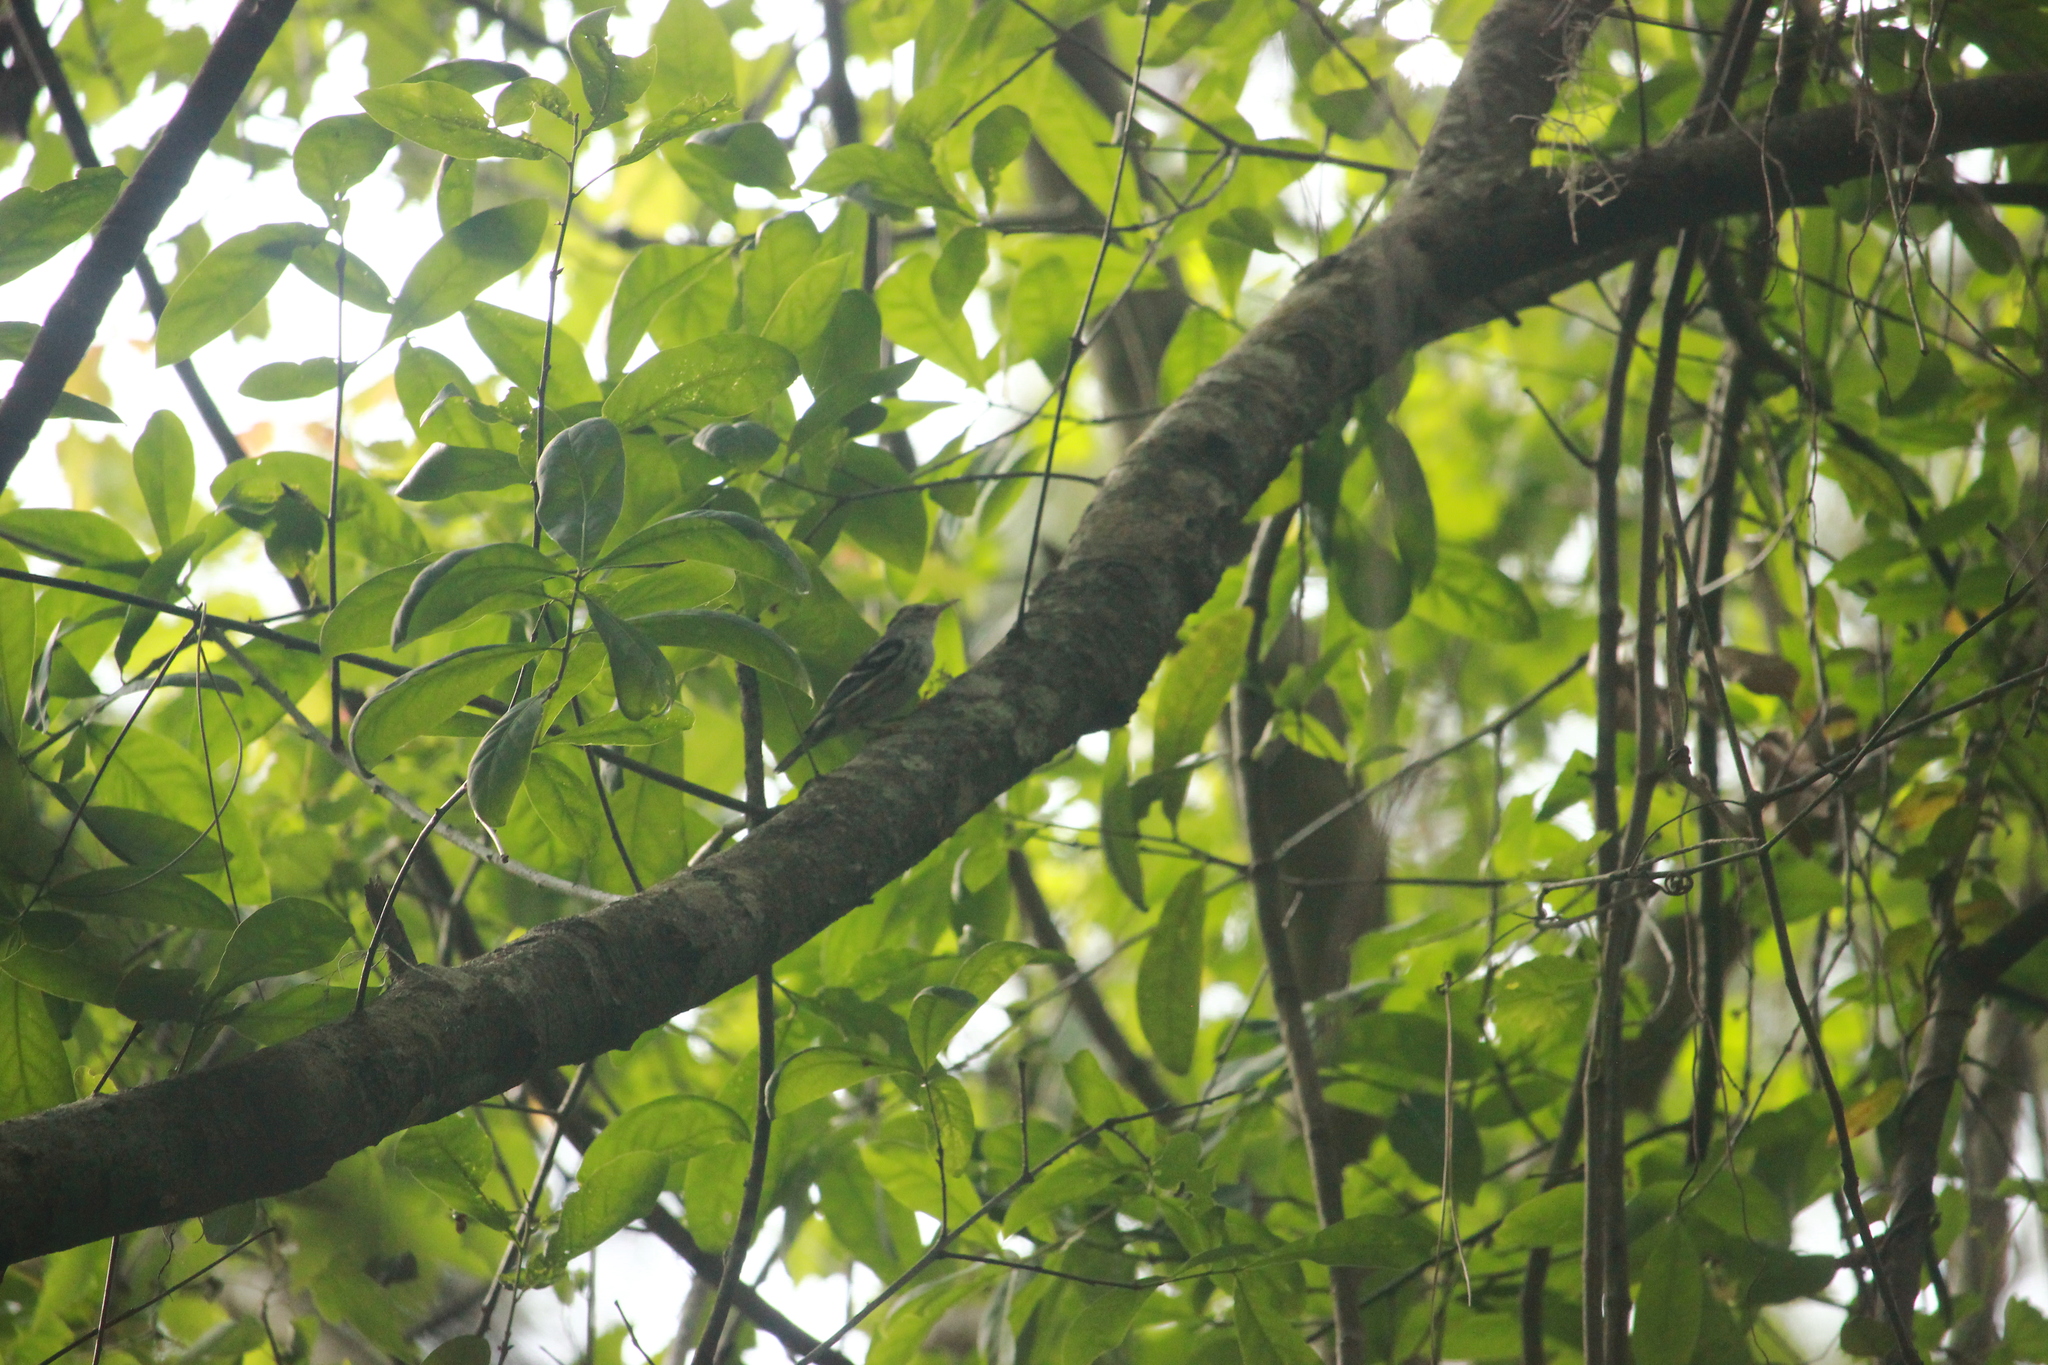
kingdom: Animalia
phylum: Chordata
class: Aves
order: Passeriformes
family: Parulidae
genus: Mniotilta
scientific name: Mniotilta varia
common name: Black-and-white warbler
